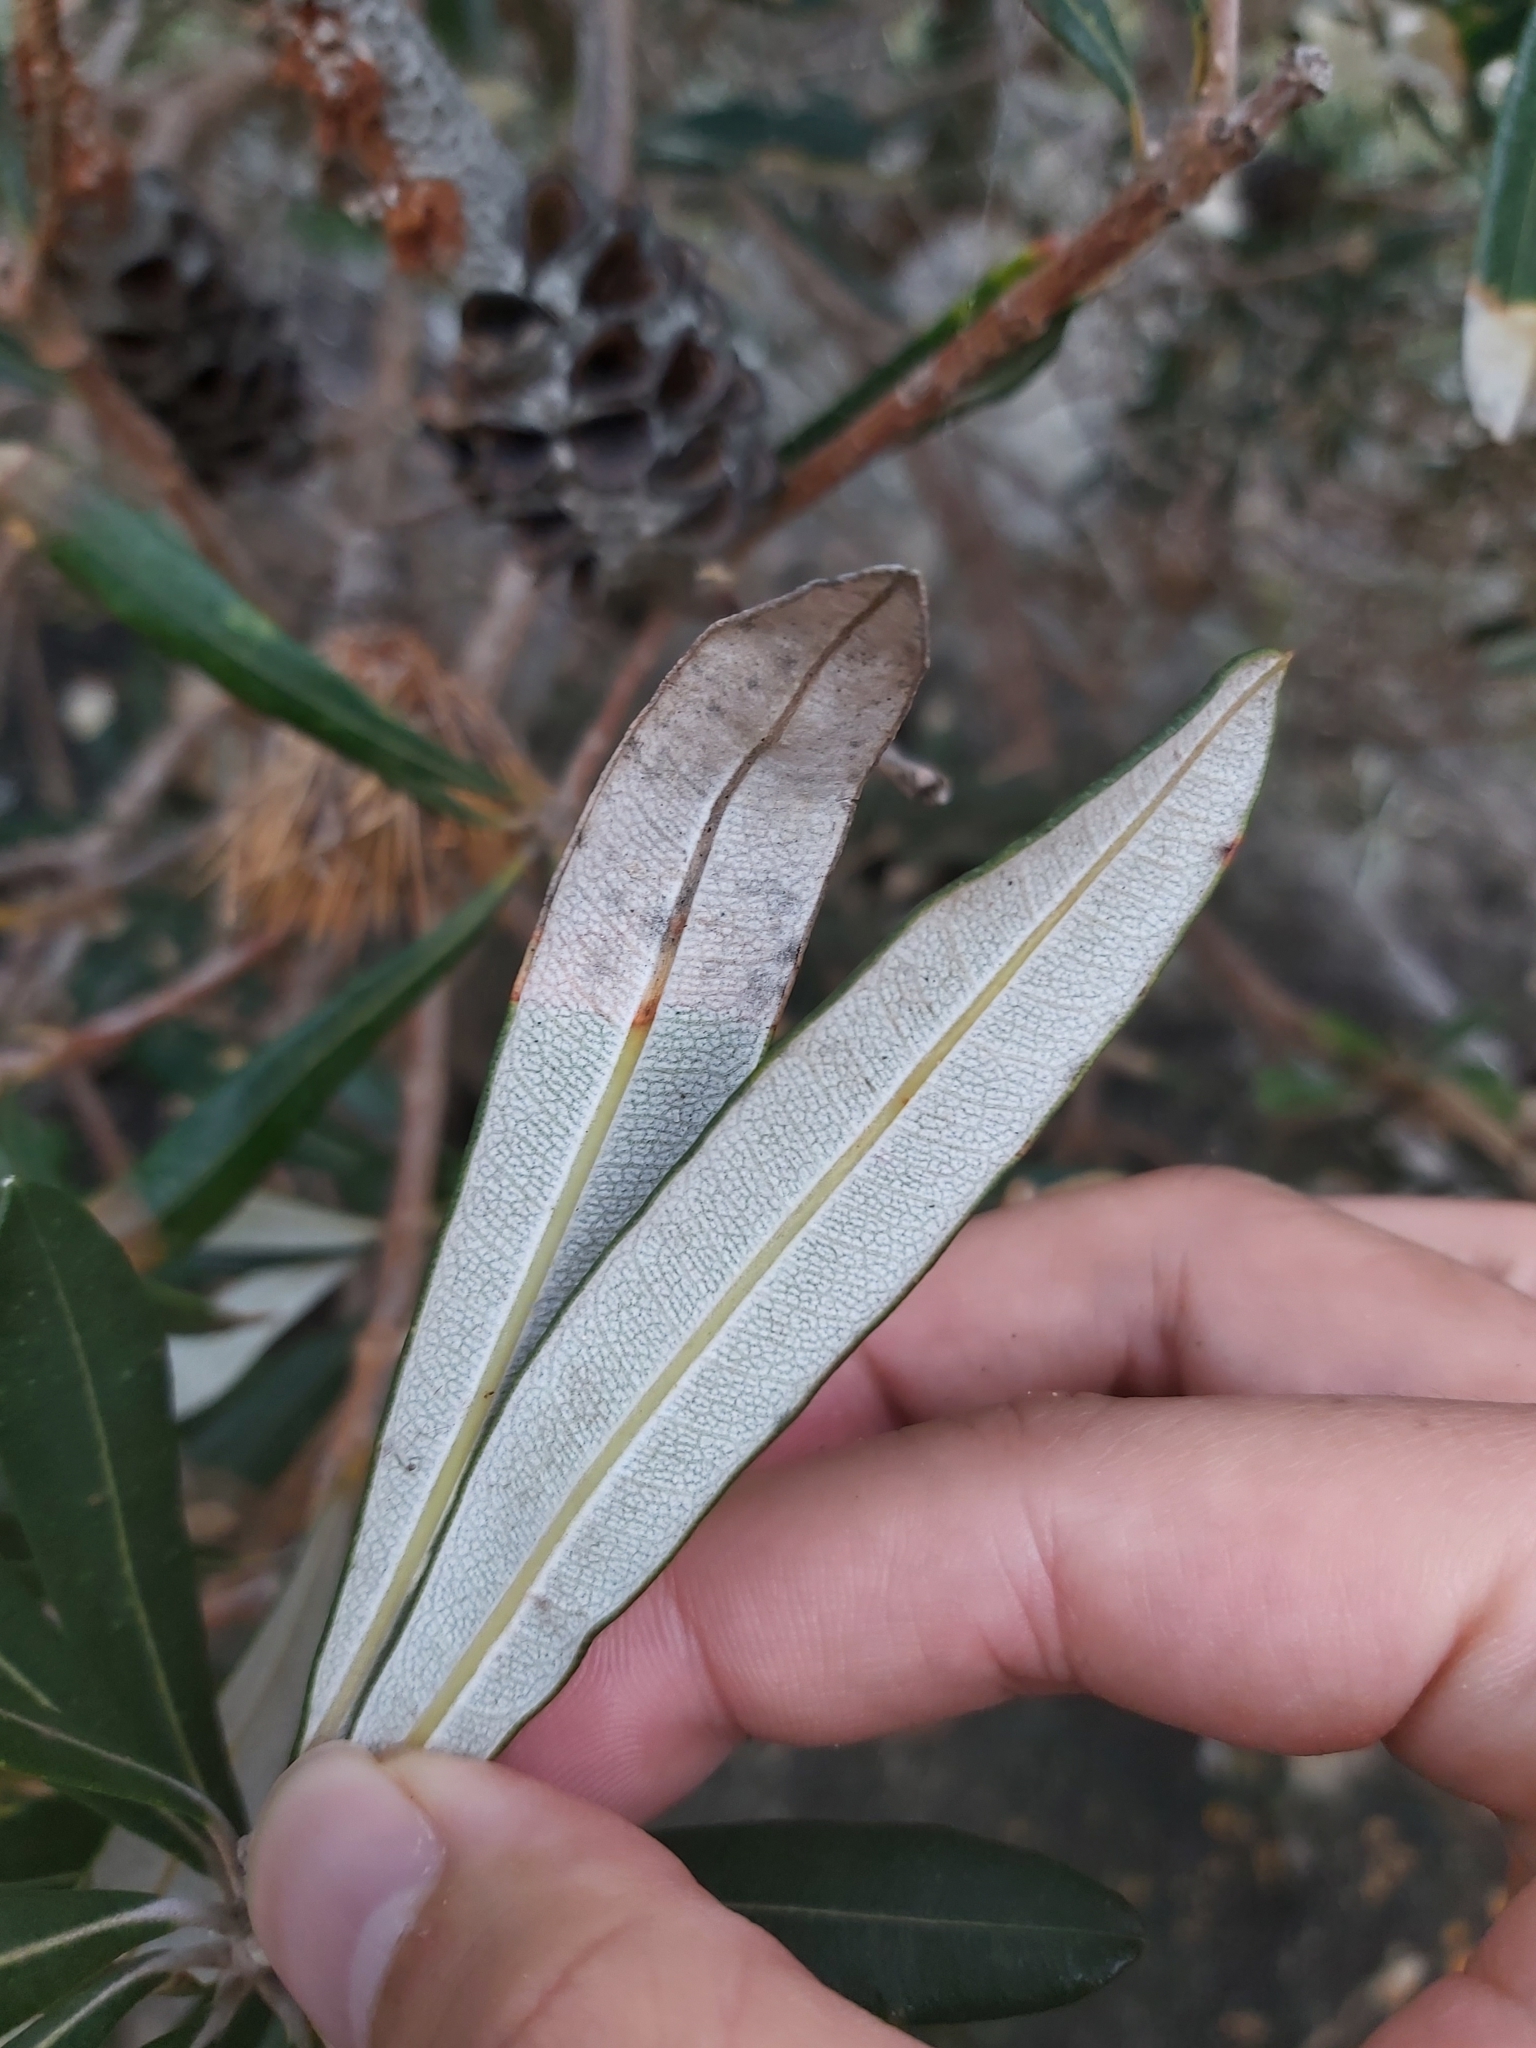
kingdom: Plantae
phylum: Tracheophyta
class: Magnoliopsida
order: Proteales
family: Proteaceae
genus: Banksia
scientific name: Banksia integrifolia
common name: White-honeysuckle
